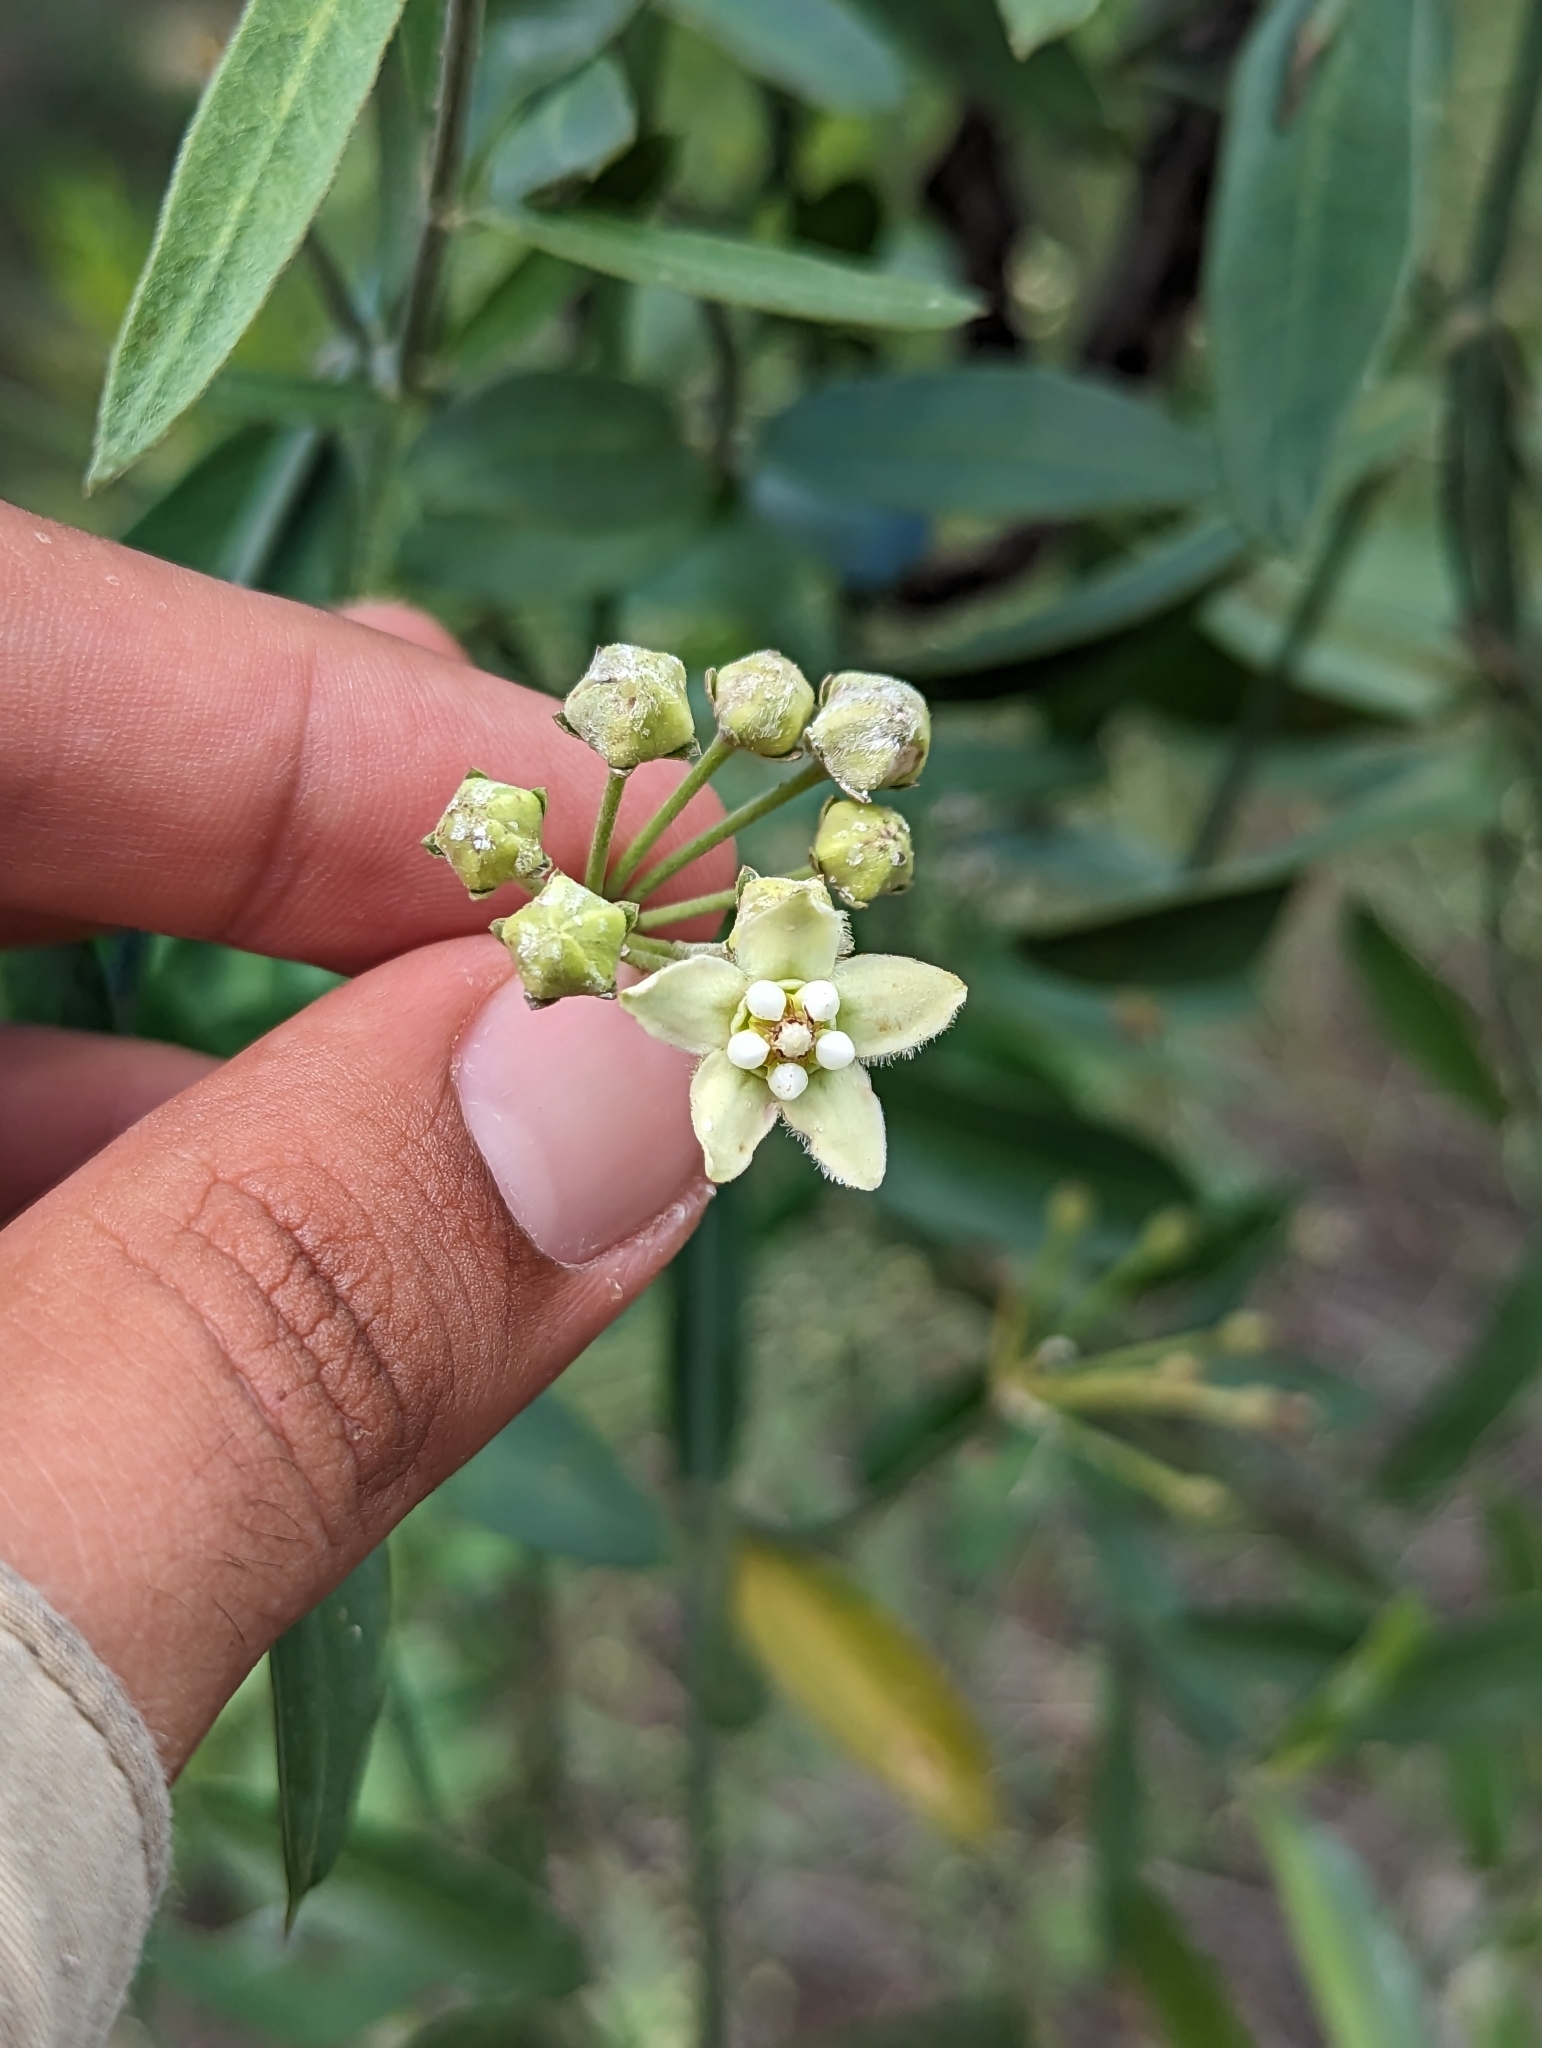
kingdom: Plantae
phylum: Tracheophyta
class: Magnoliopsida
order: Gentianales
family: Apocynaceae
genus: Funastrum
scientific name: Funastrum clausum
